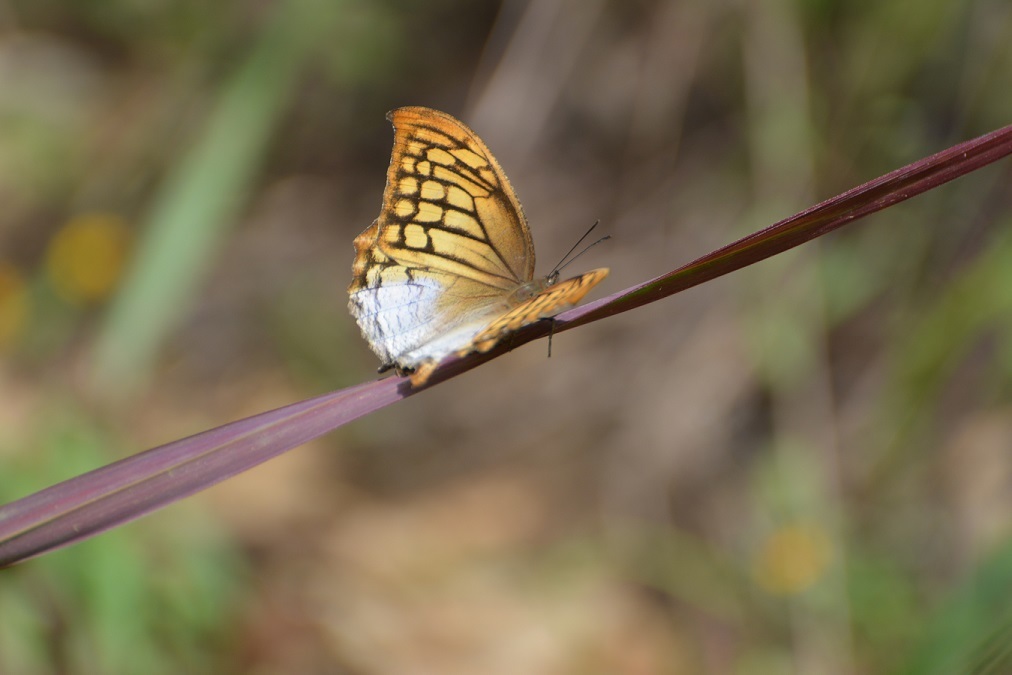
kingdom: Animalia
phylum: Arthropoda
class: Insecta
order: Lepidoptera
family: Nymphalidae
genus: Consul
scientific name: Consul excellens
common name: Black-veined leafwing
